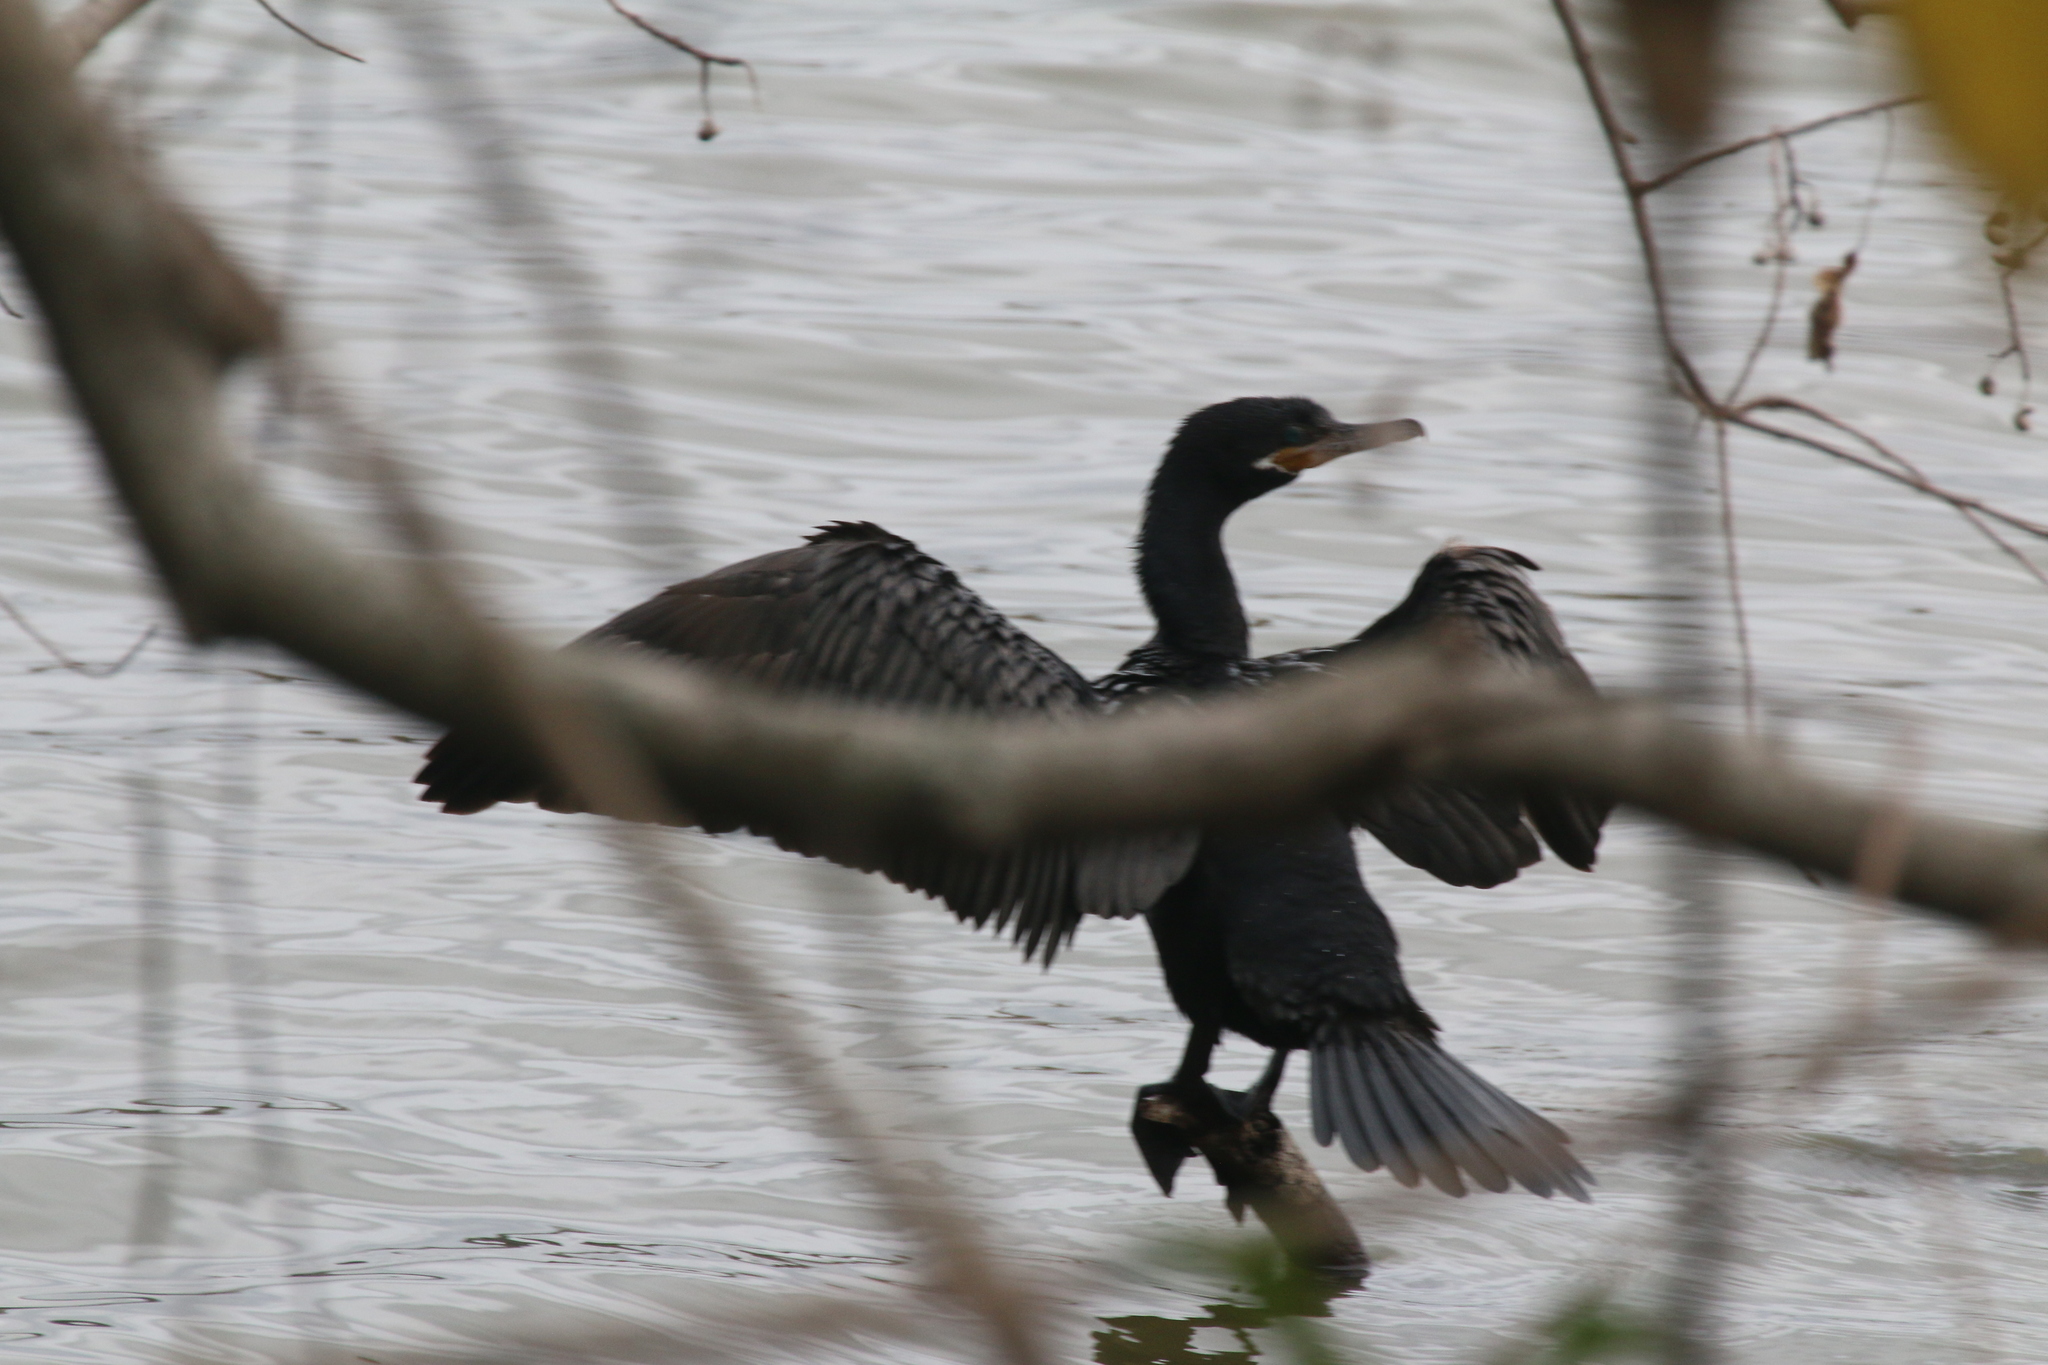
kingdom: Animalia
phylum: Chordata
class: Aves
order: Suliformes
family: Phalacrocoracidae
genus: Phalacrocorax
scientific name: Phalacrocorax brasilianus
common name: Neotropic cormorant
